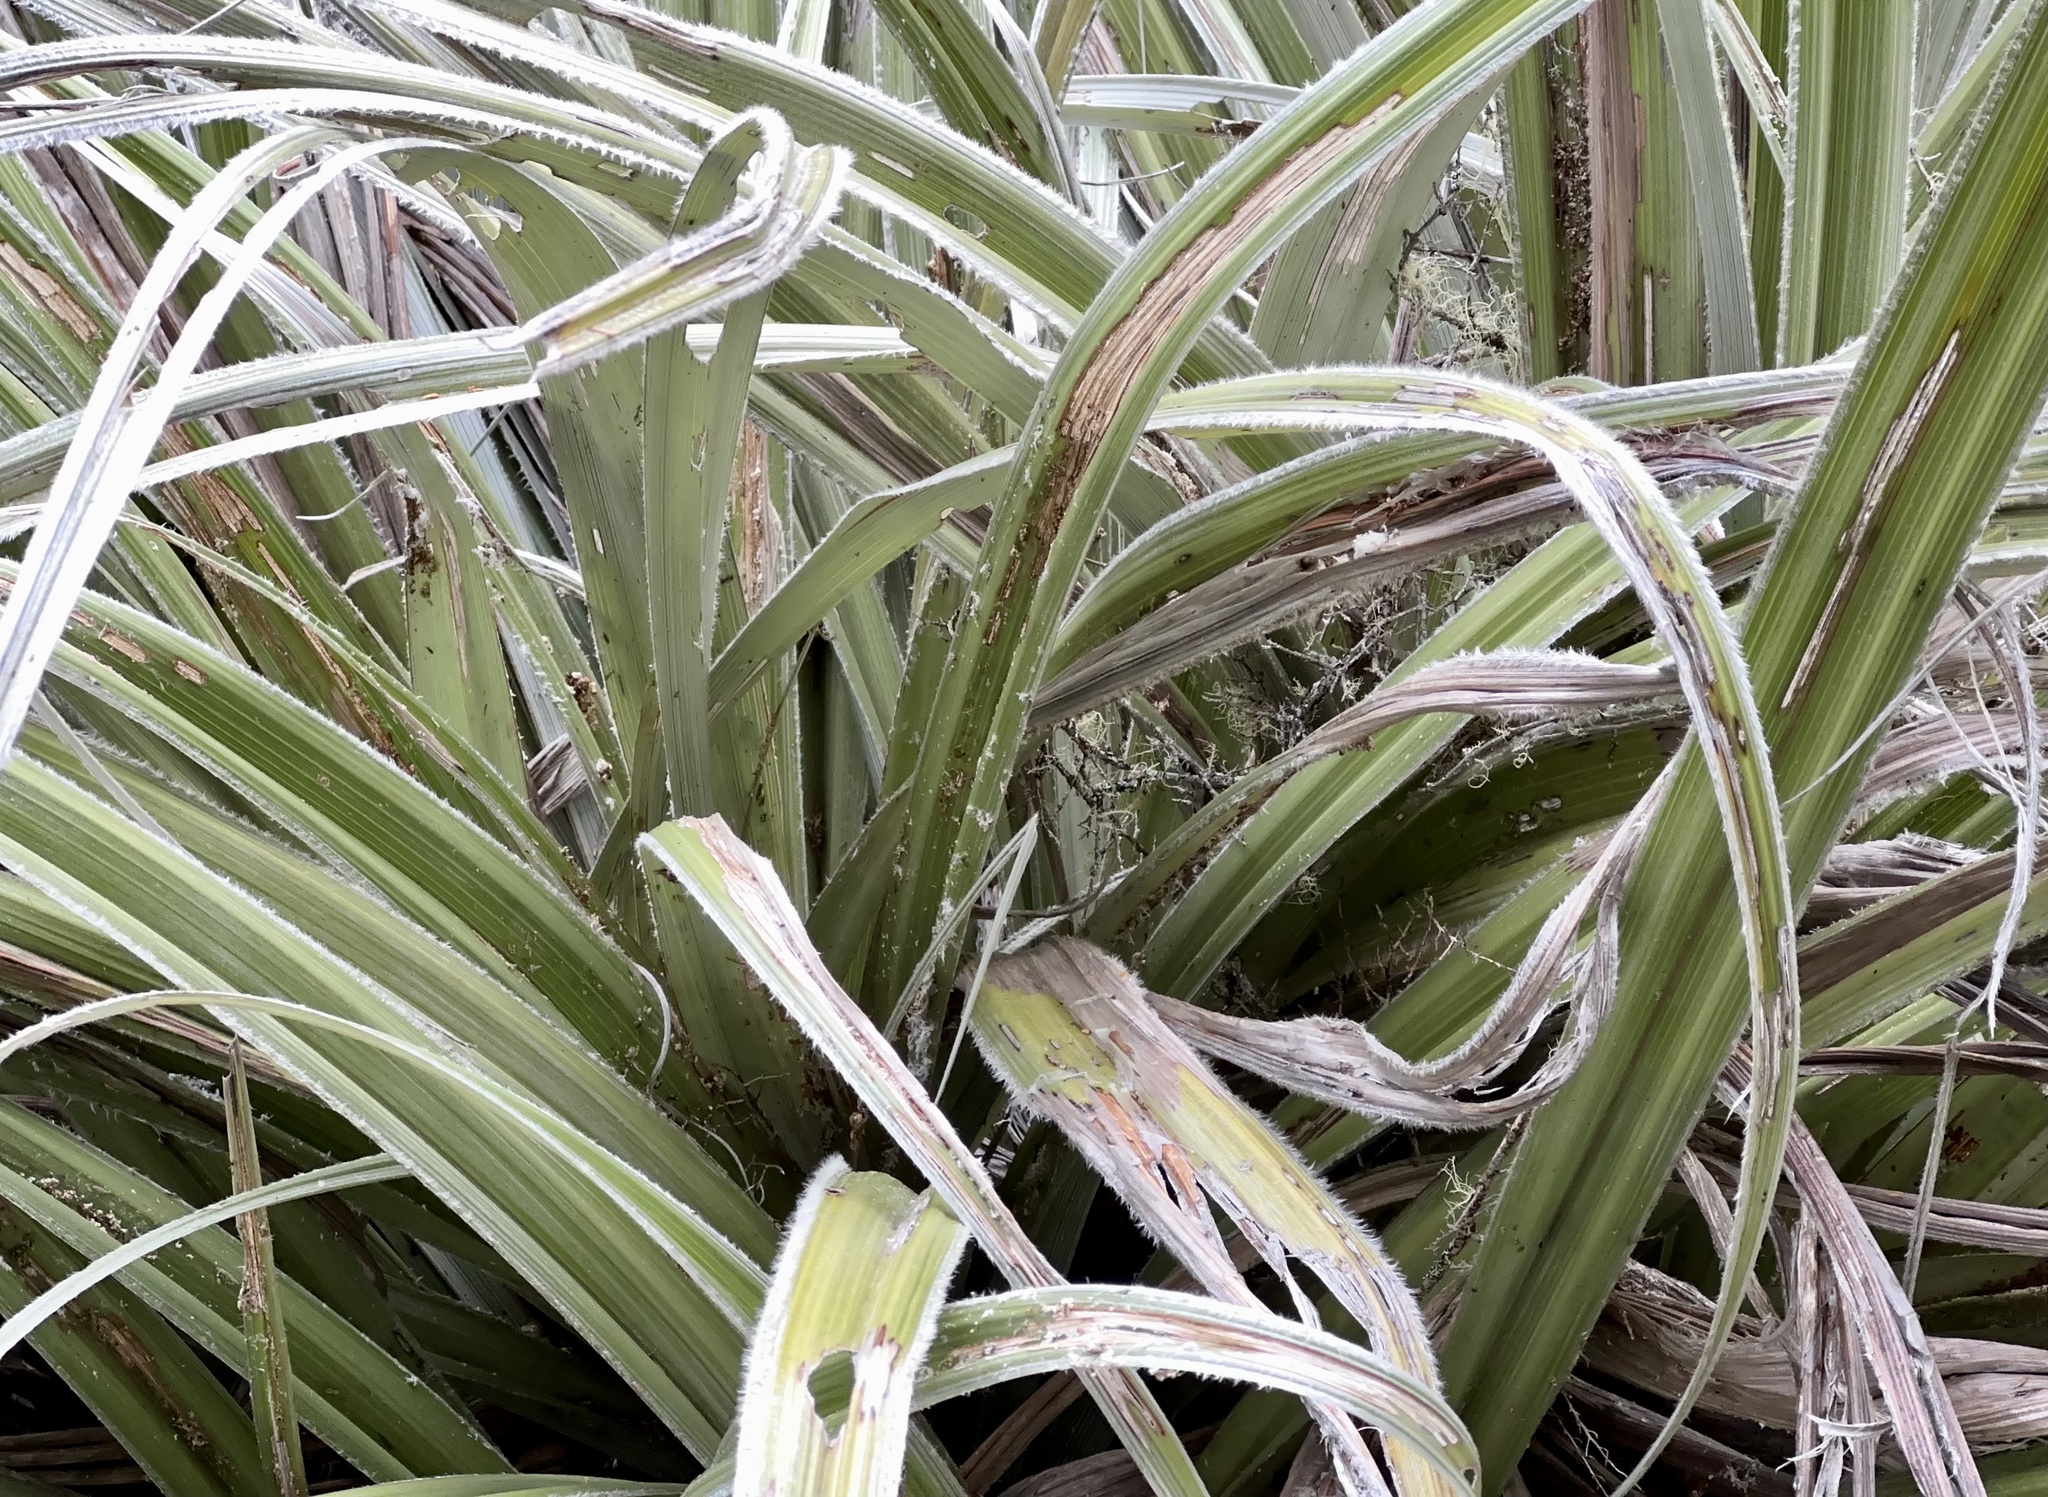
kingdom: Plantae
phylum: Tracheophyta
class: Liliopsida
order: Asparagales
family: Asteliaceae
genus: Astelia
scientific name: Astelia nervosa
